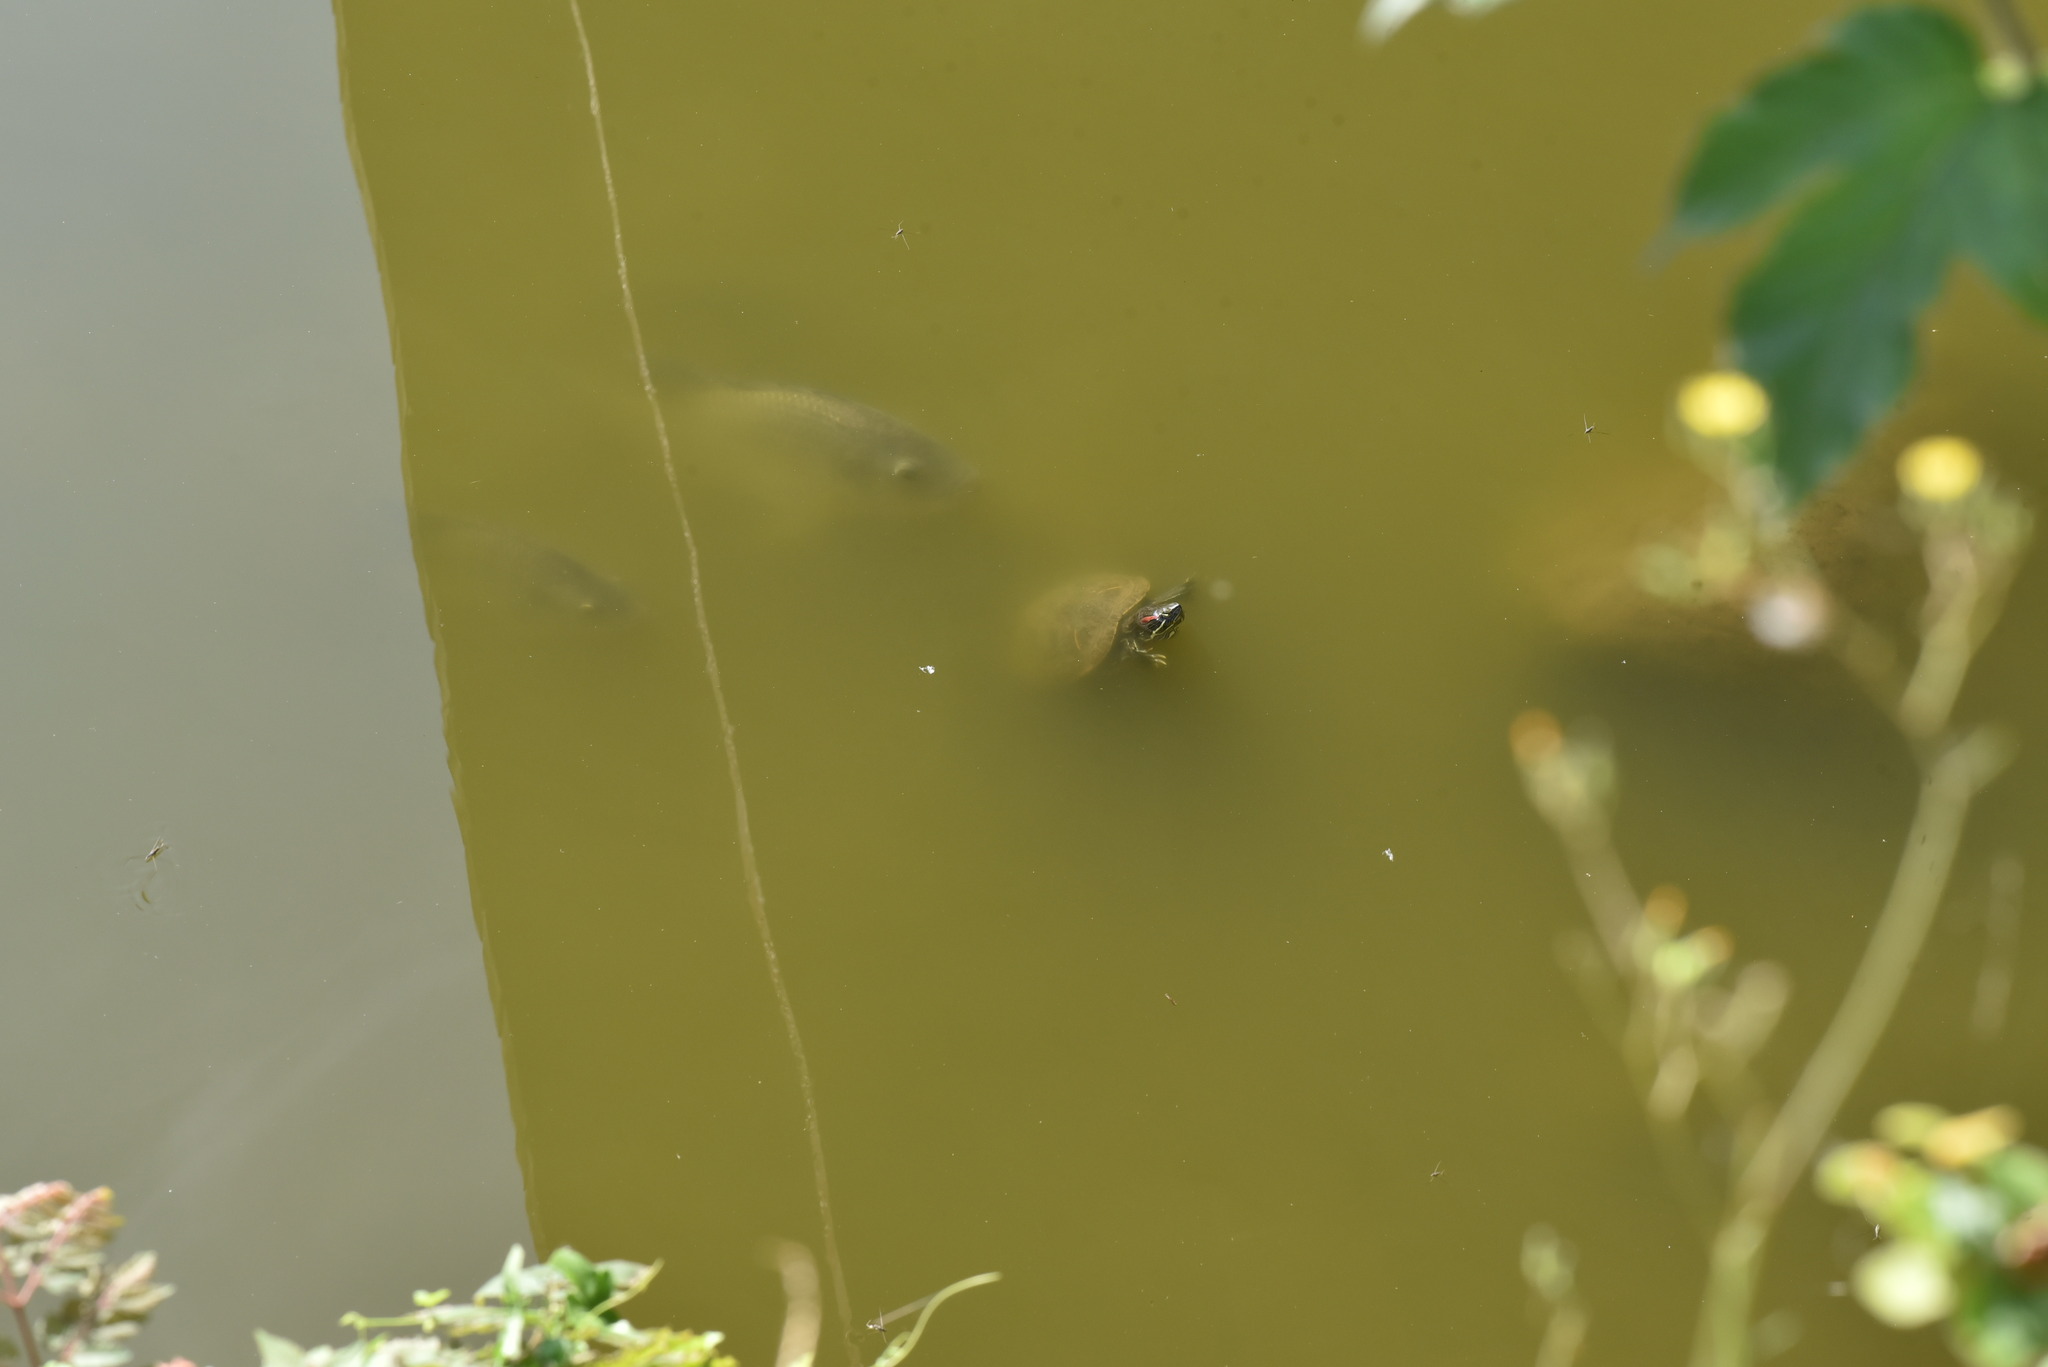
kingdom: Animalia
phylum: Chordata
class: Testudines
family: Emydidae
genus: Trachemys
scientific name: Trachemys scripta
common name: Slider
